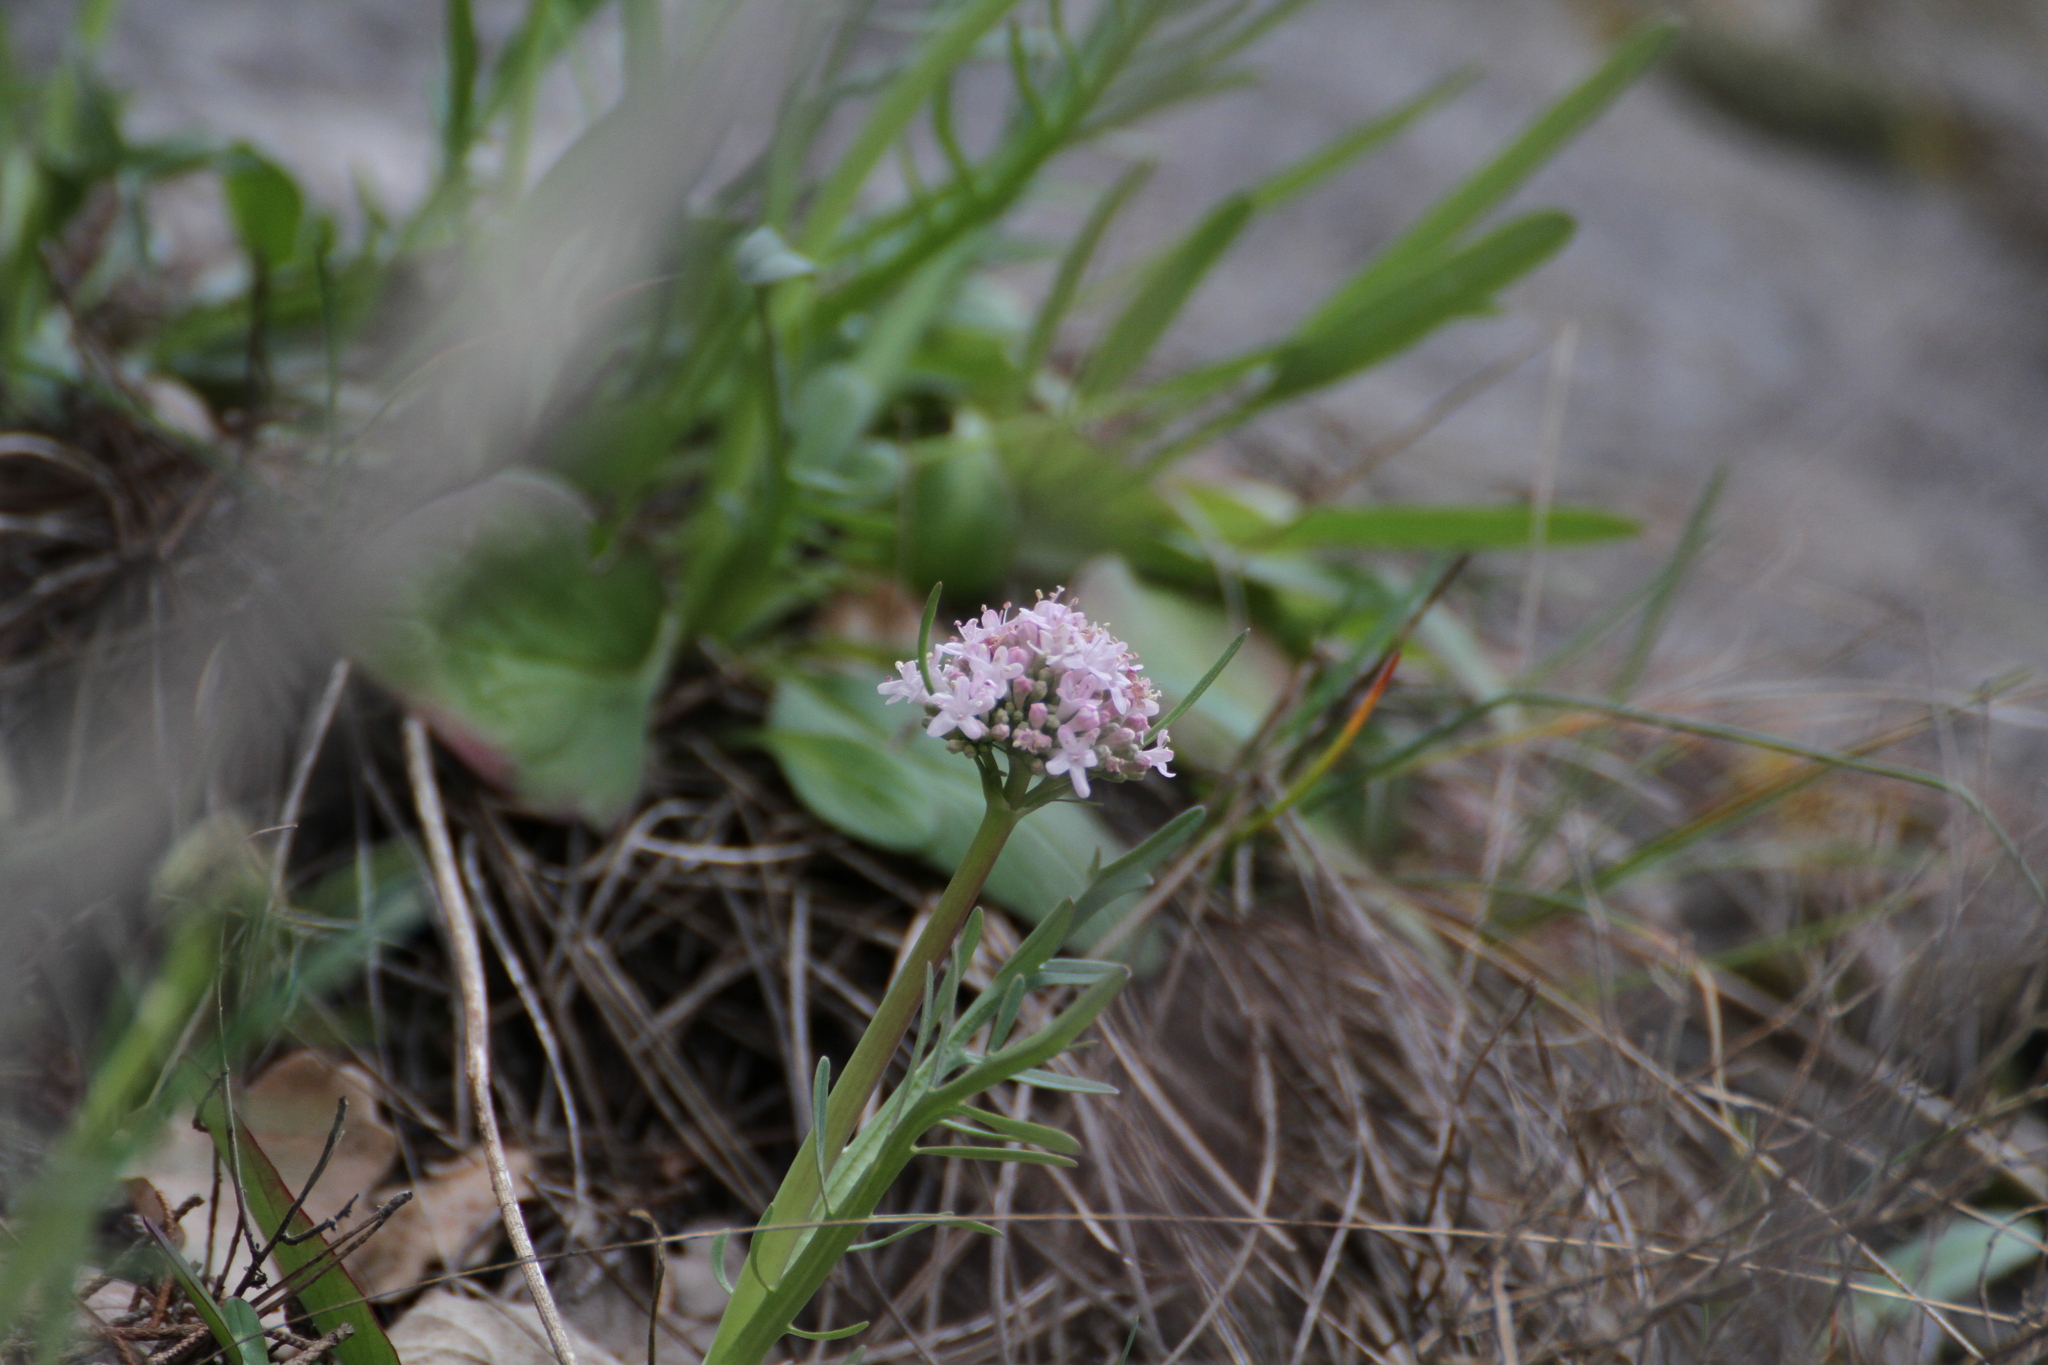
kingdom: Plantae
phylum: Tracheophyta
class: Magnoliopsida
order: Dipsacales
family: Caprifoliaceae
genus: Valeriana
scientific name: Valeriana tuberosa
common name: Tuberous valerian
